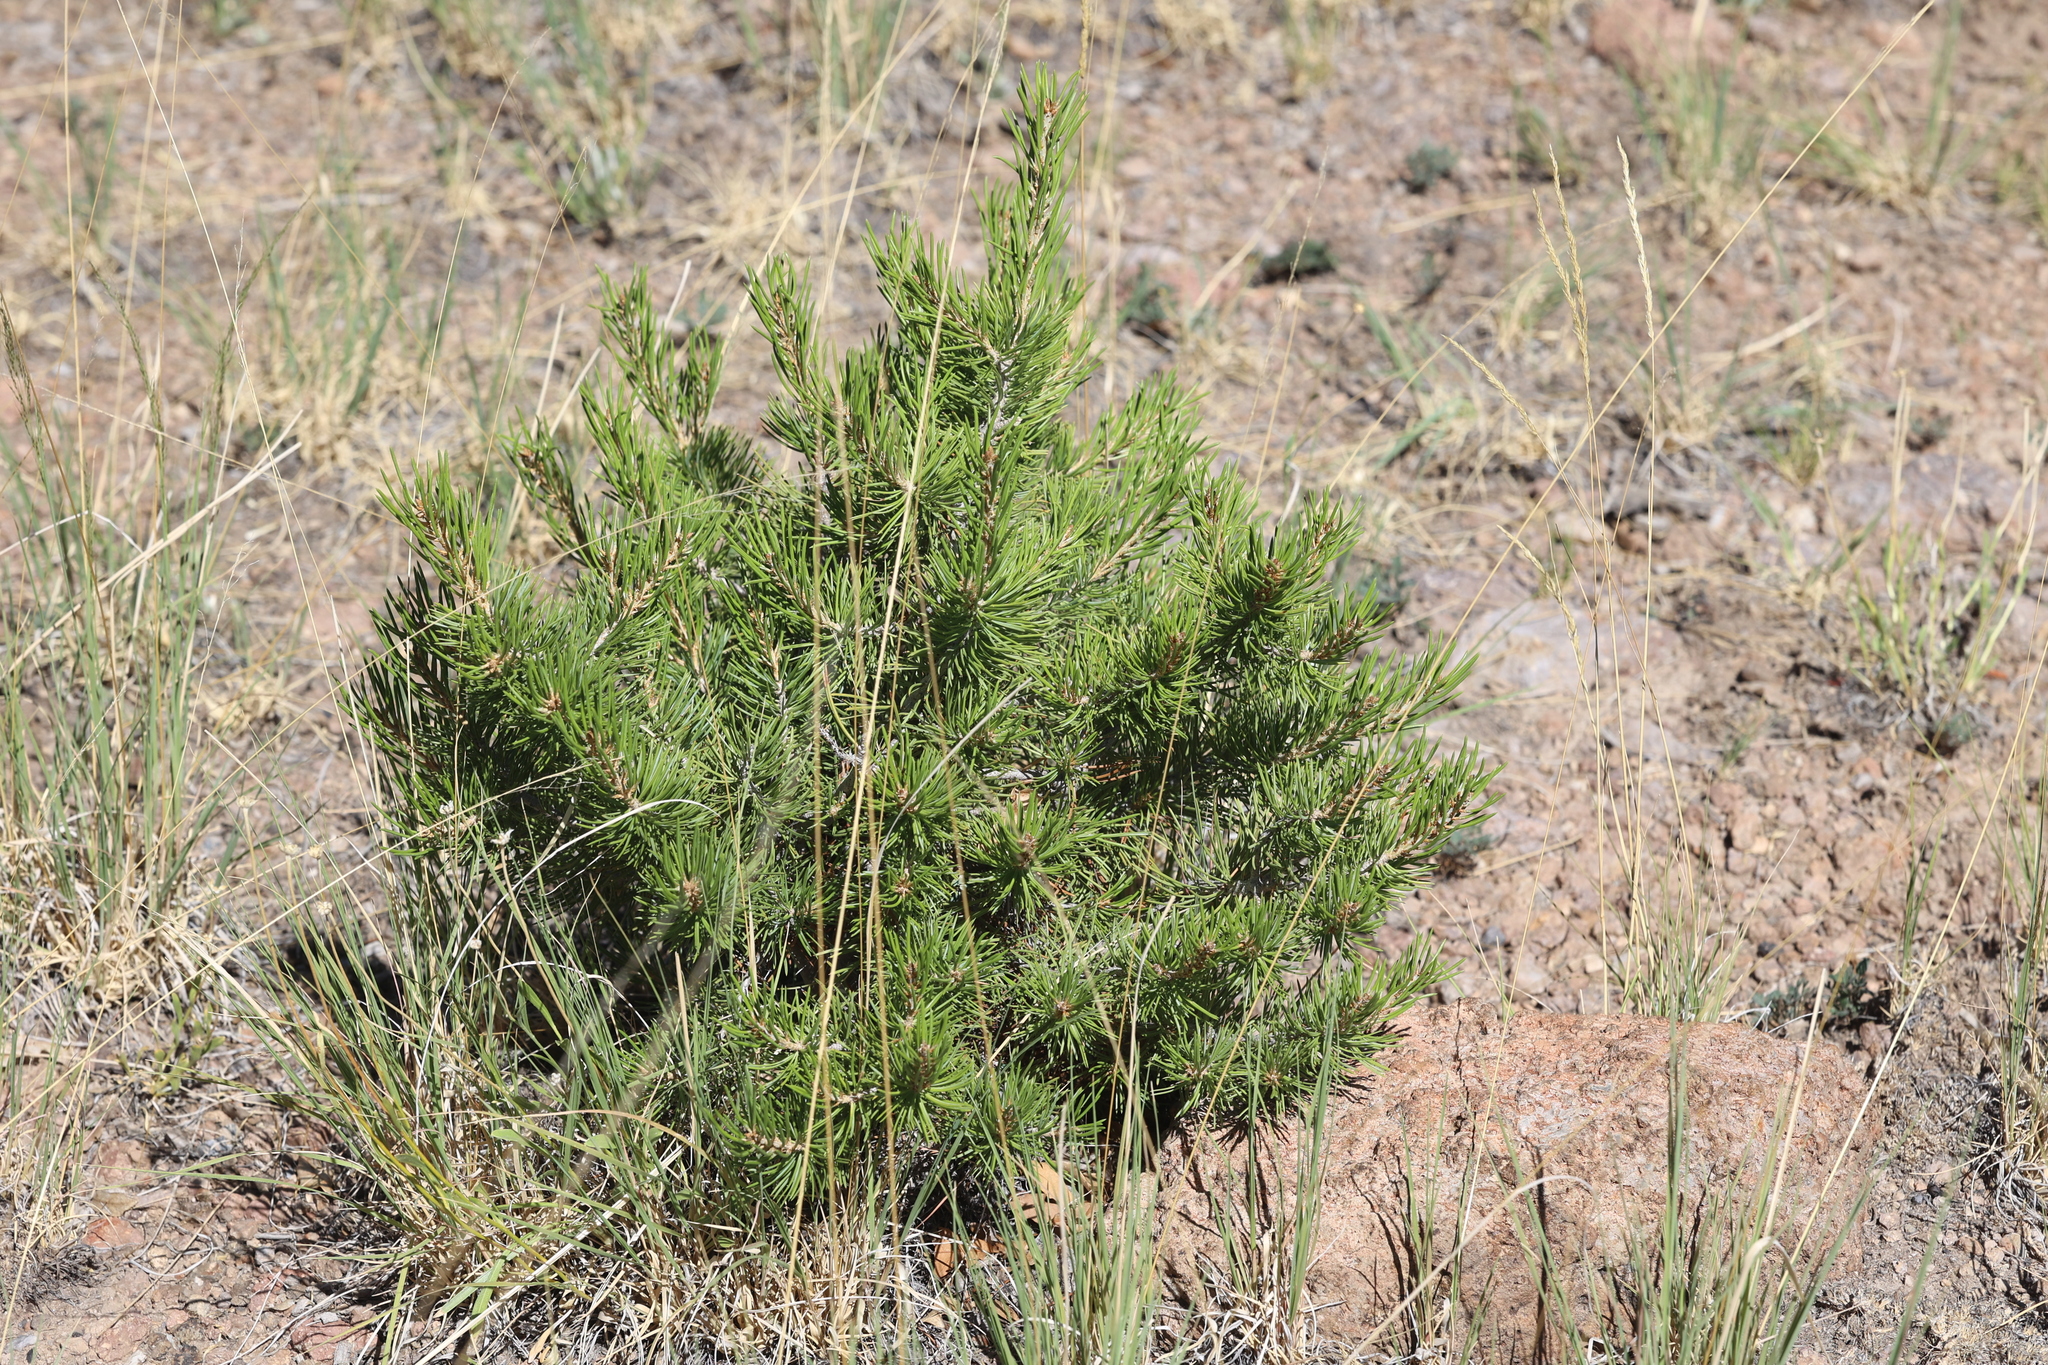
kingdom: Plantae
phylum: Tracheophyta
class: Pinopsida
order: Pinales
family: Pinaceae
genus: Pinus
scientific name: Pinus edulis
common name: Colorado pinyon
